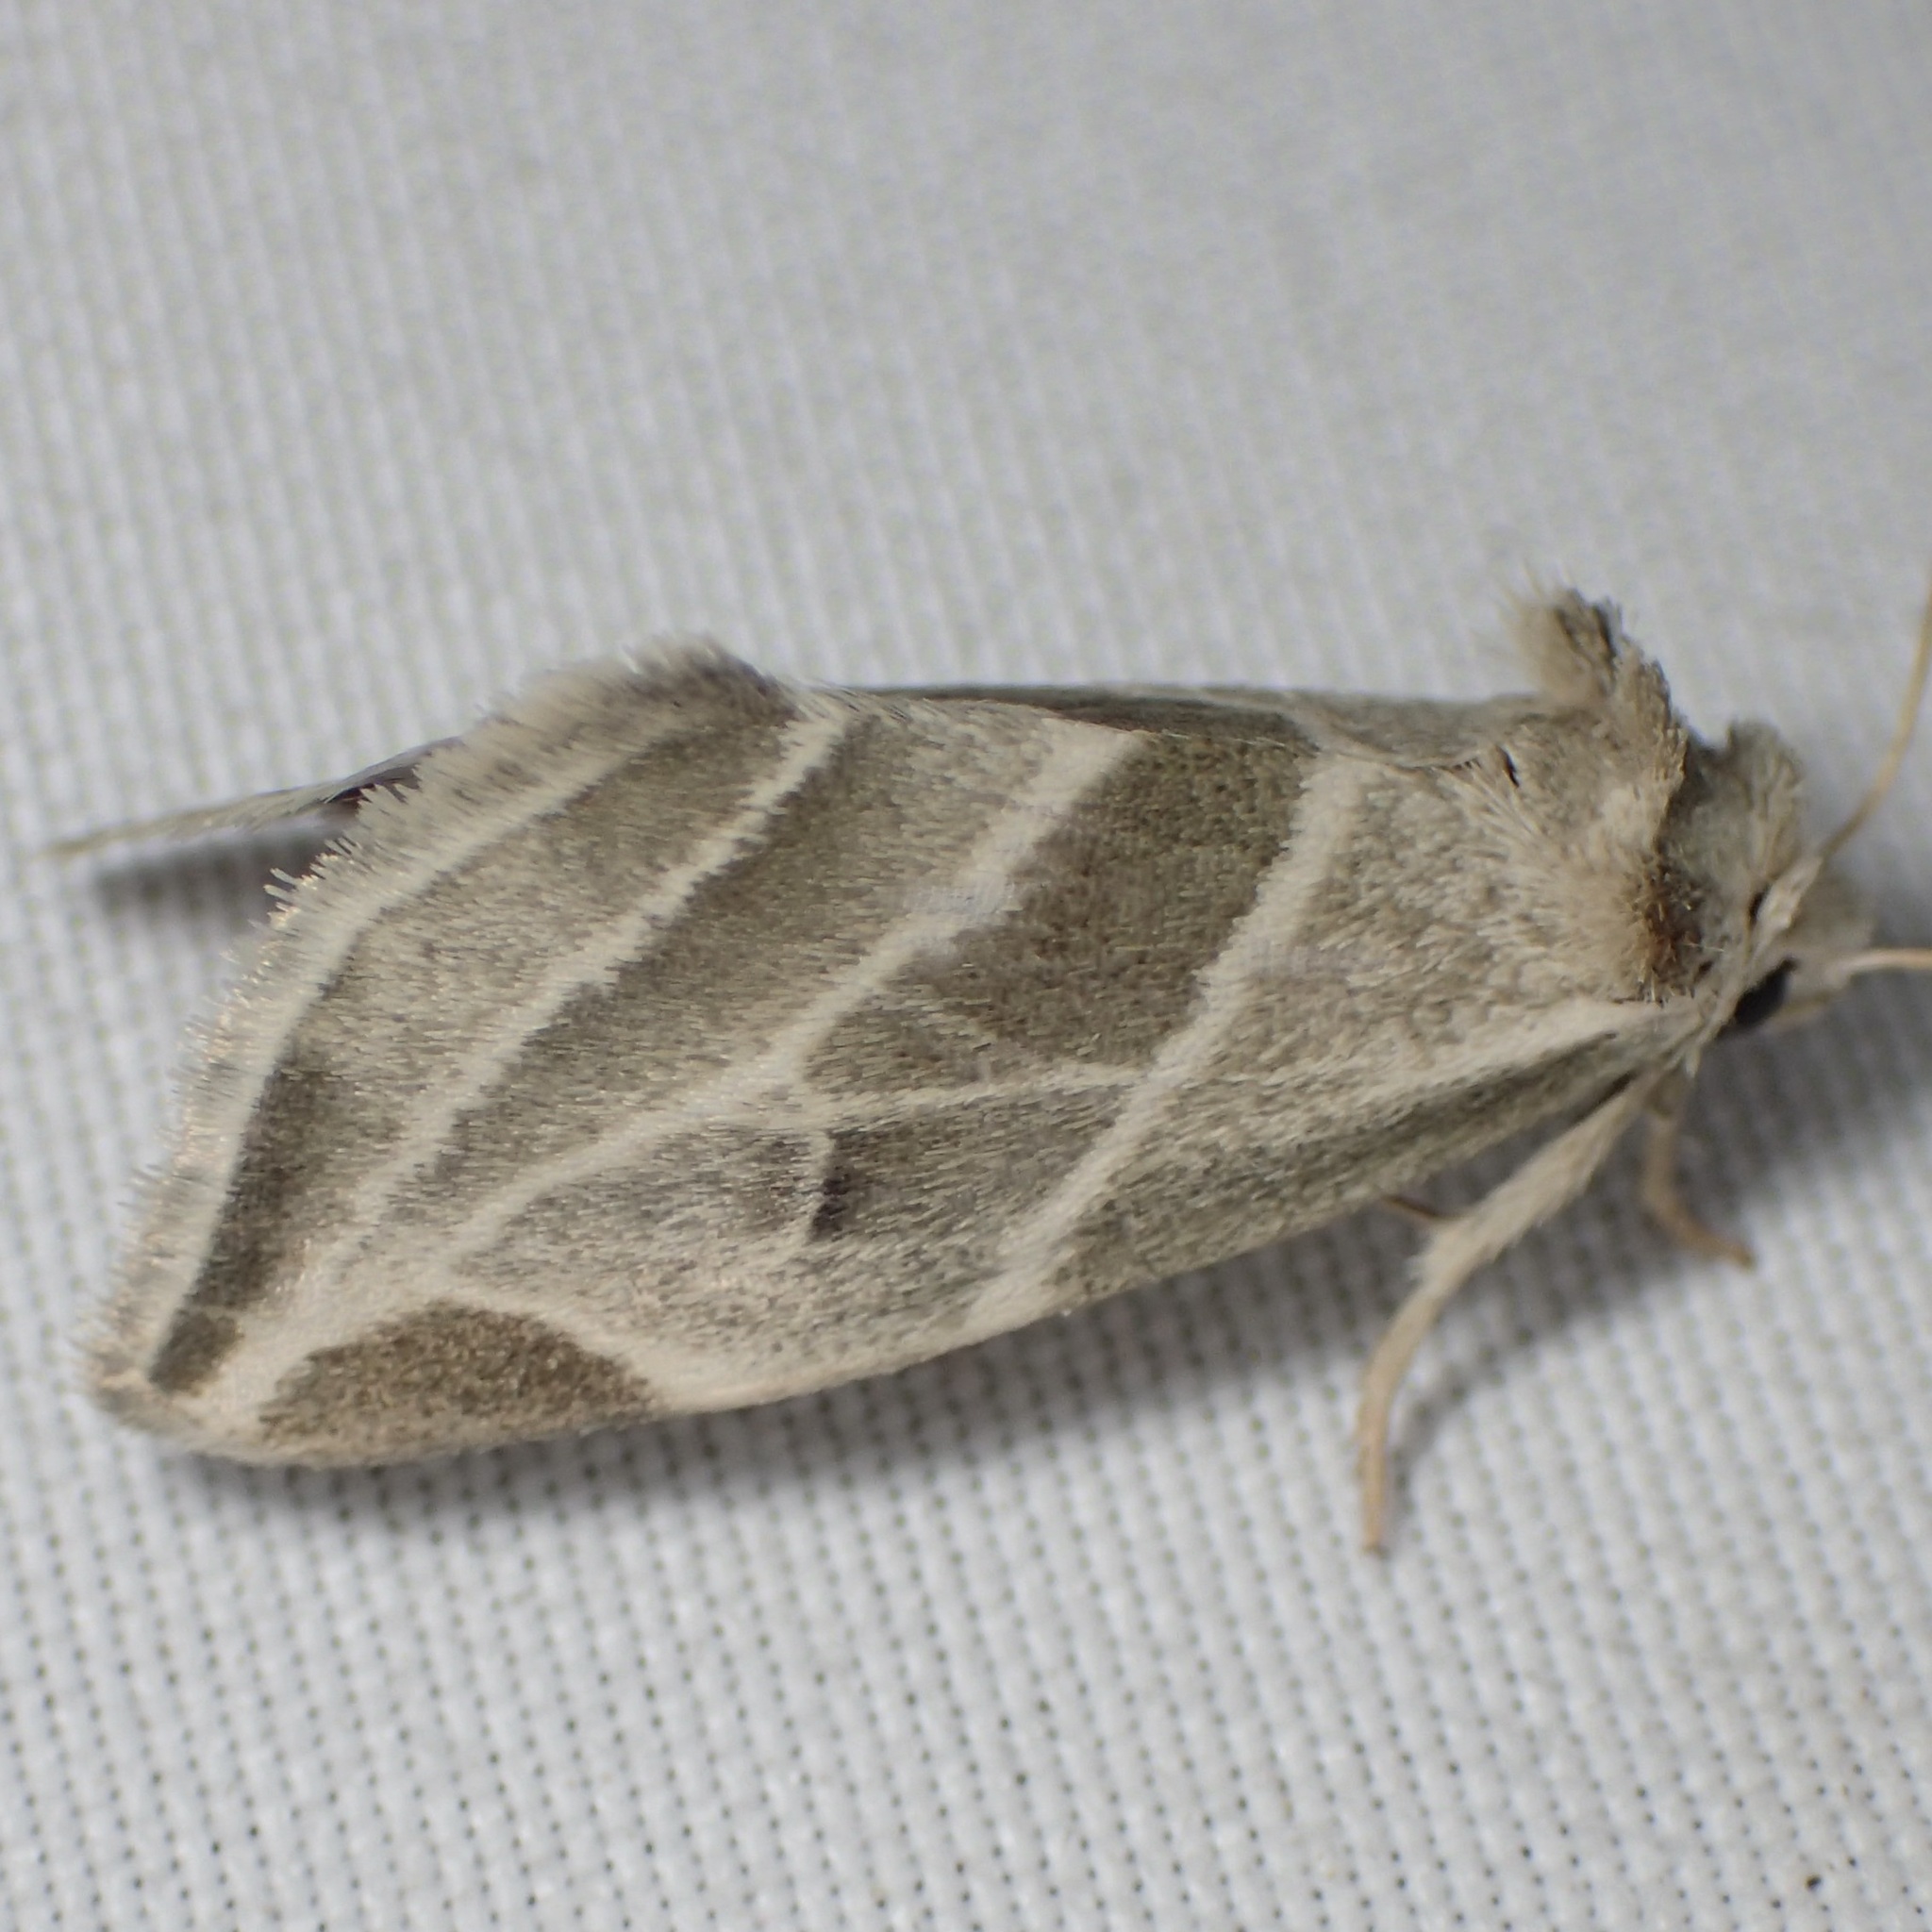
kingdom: Animalia
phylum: Arthropoda
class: Insecta
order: Lepidoptera
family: Noctuidae
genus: Plagiomimicus
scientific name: Plagiomimicus tepperi
